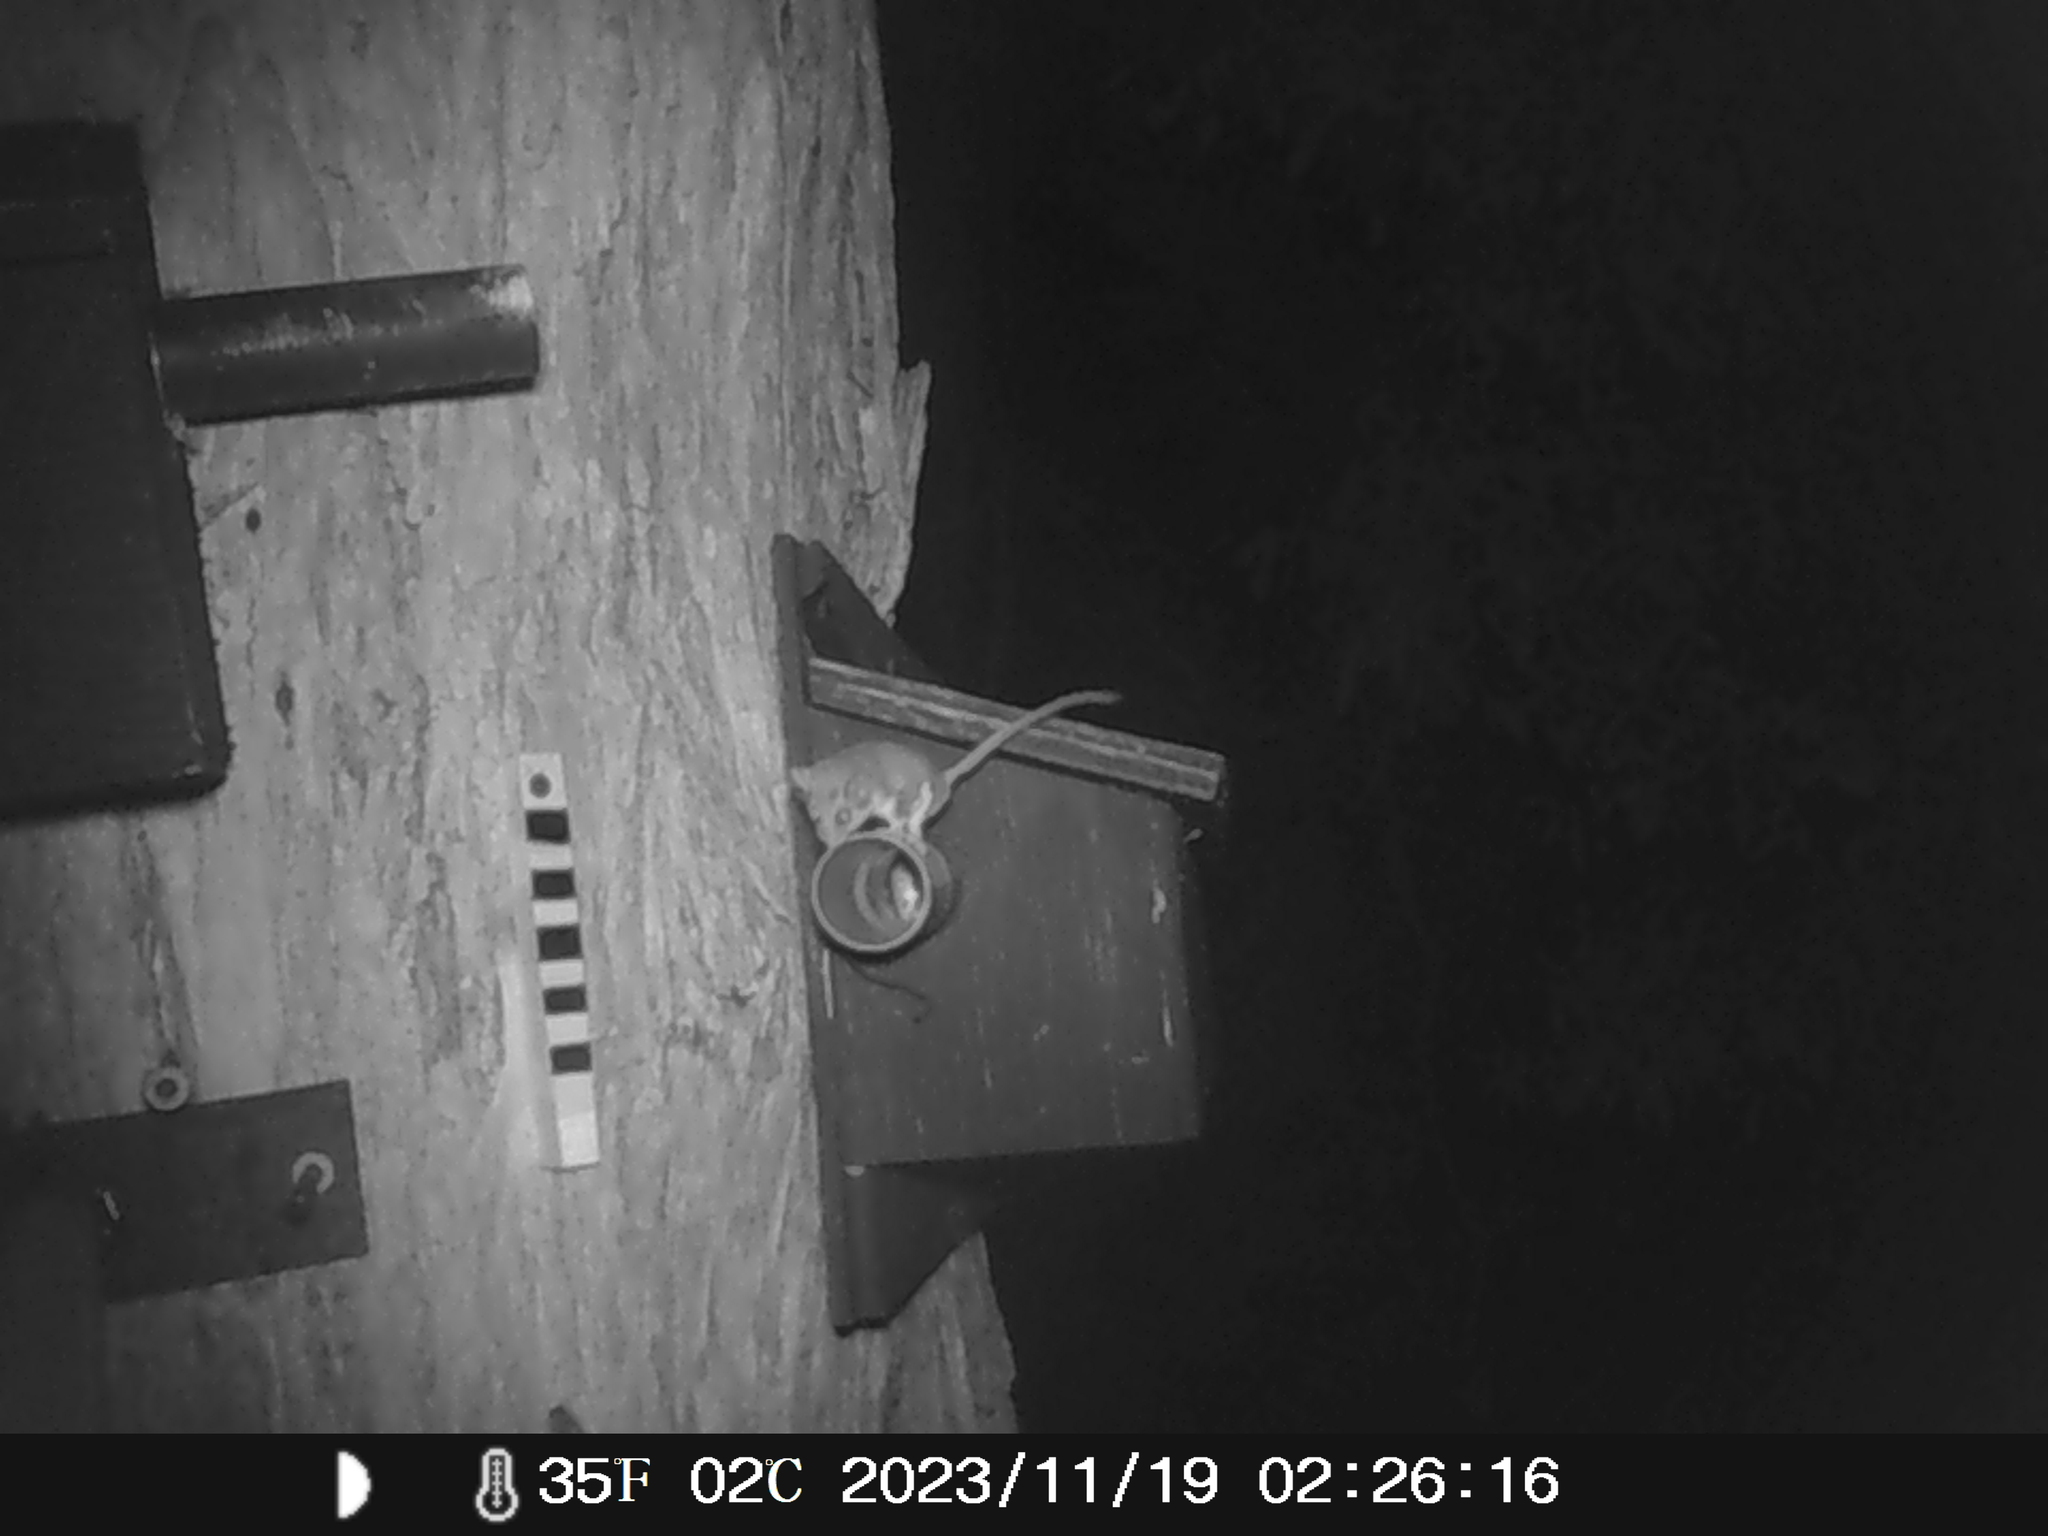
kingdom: Animalia
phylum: Chordata
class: Mammalia
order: Diprotodontia
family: Acrobatidae
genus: Acrobates
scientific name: Acrobates pygmaeus
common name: Feathertail glider
